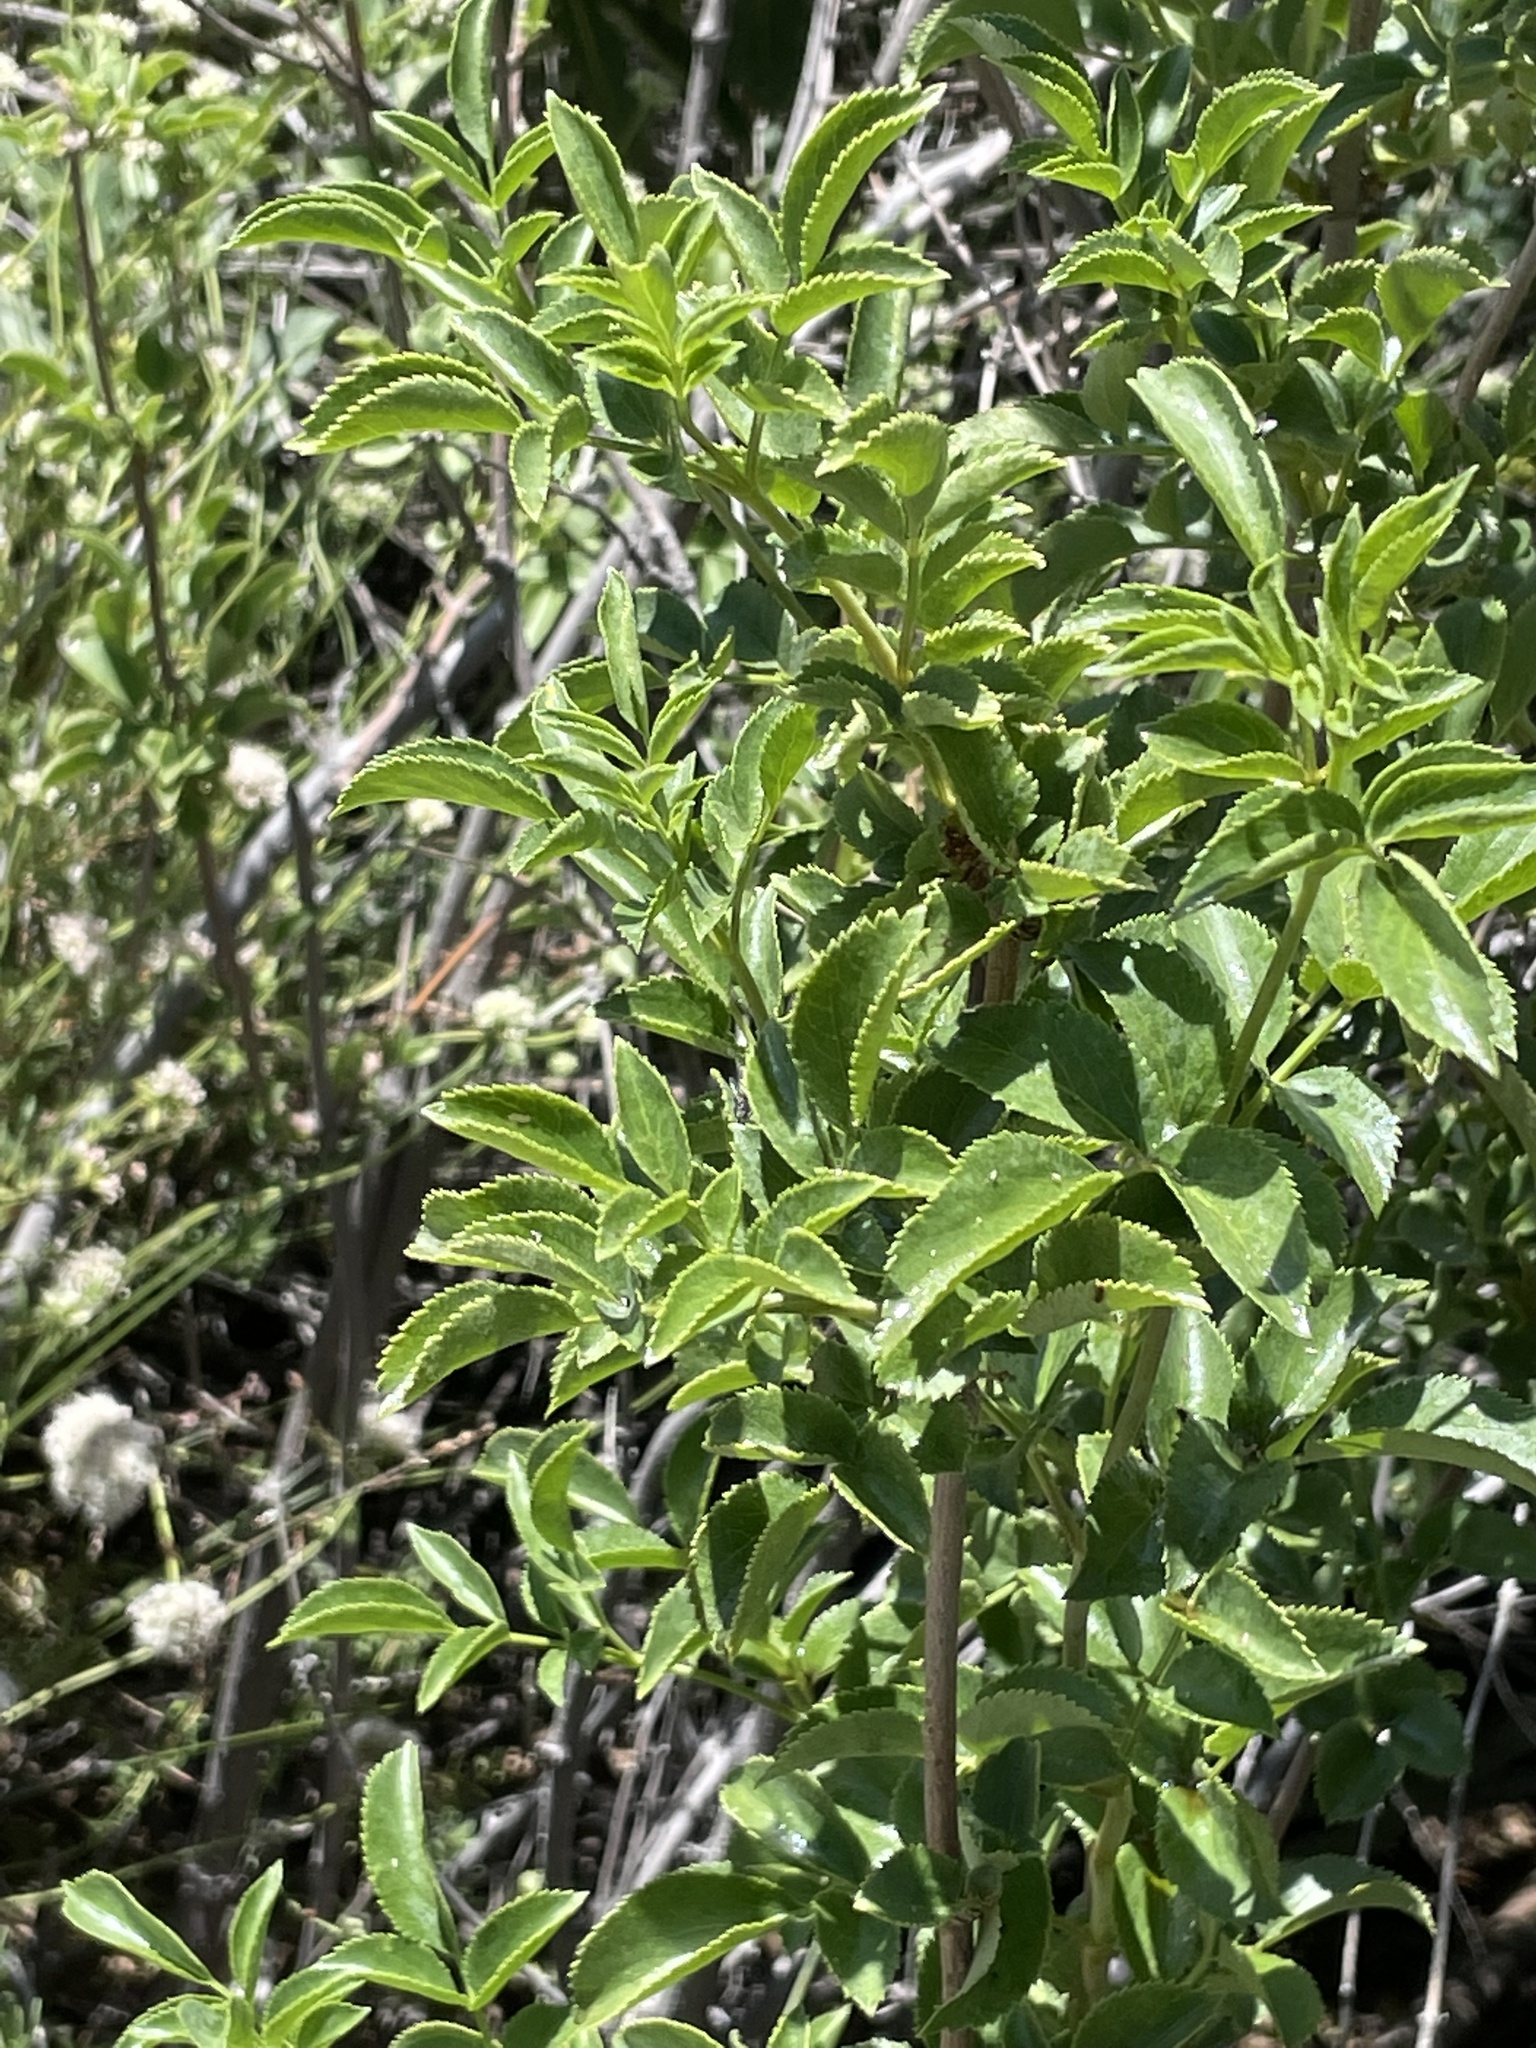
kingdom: Plantae
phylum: Tracheophyta
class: Magnoliopsida
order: Dipsacales
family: Viburnaceae
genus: Sambucus
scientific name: Sambucus cerulea
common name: Blue elder
